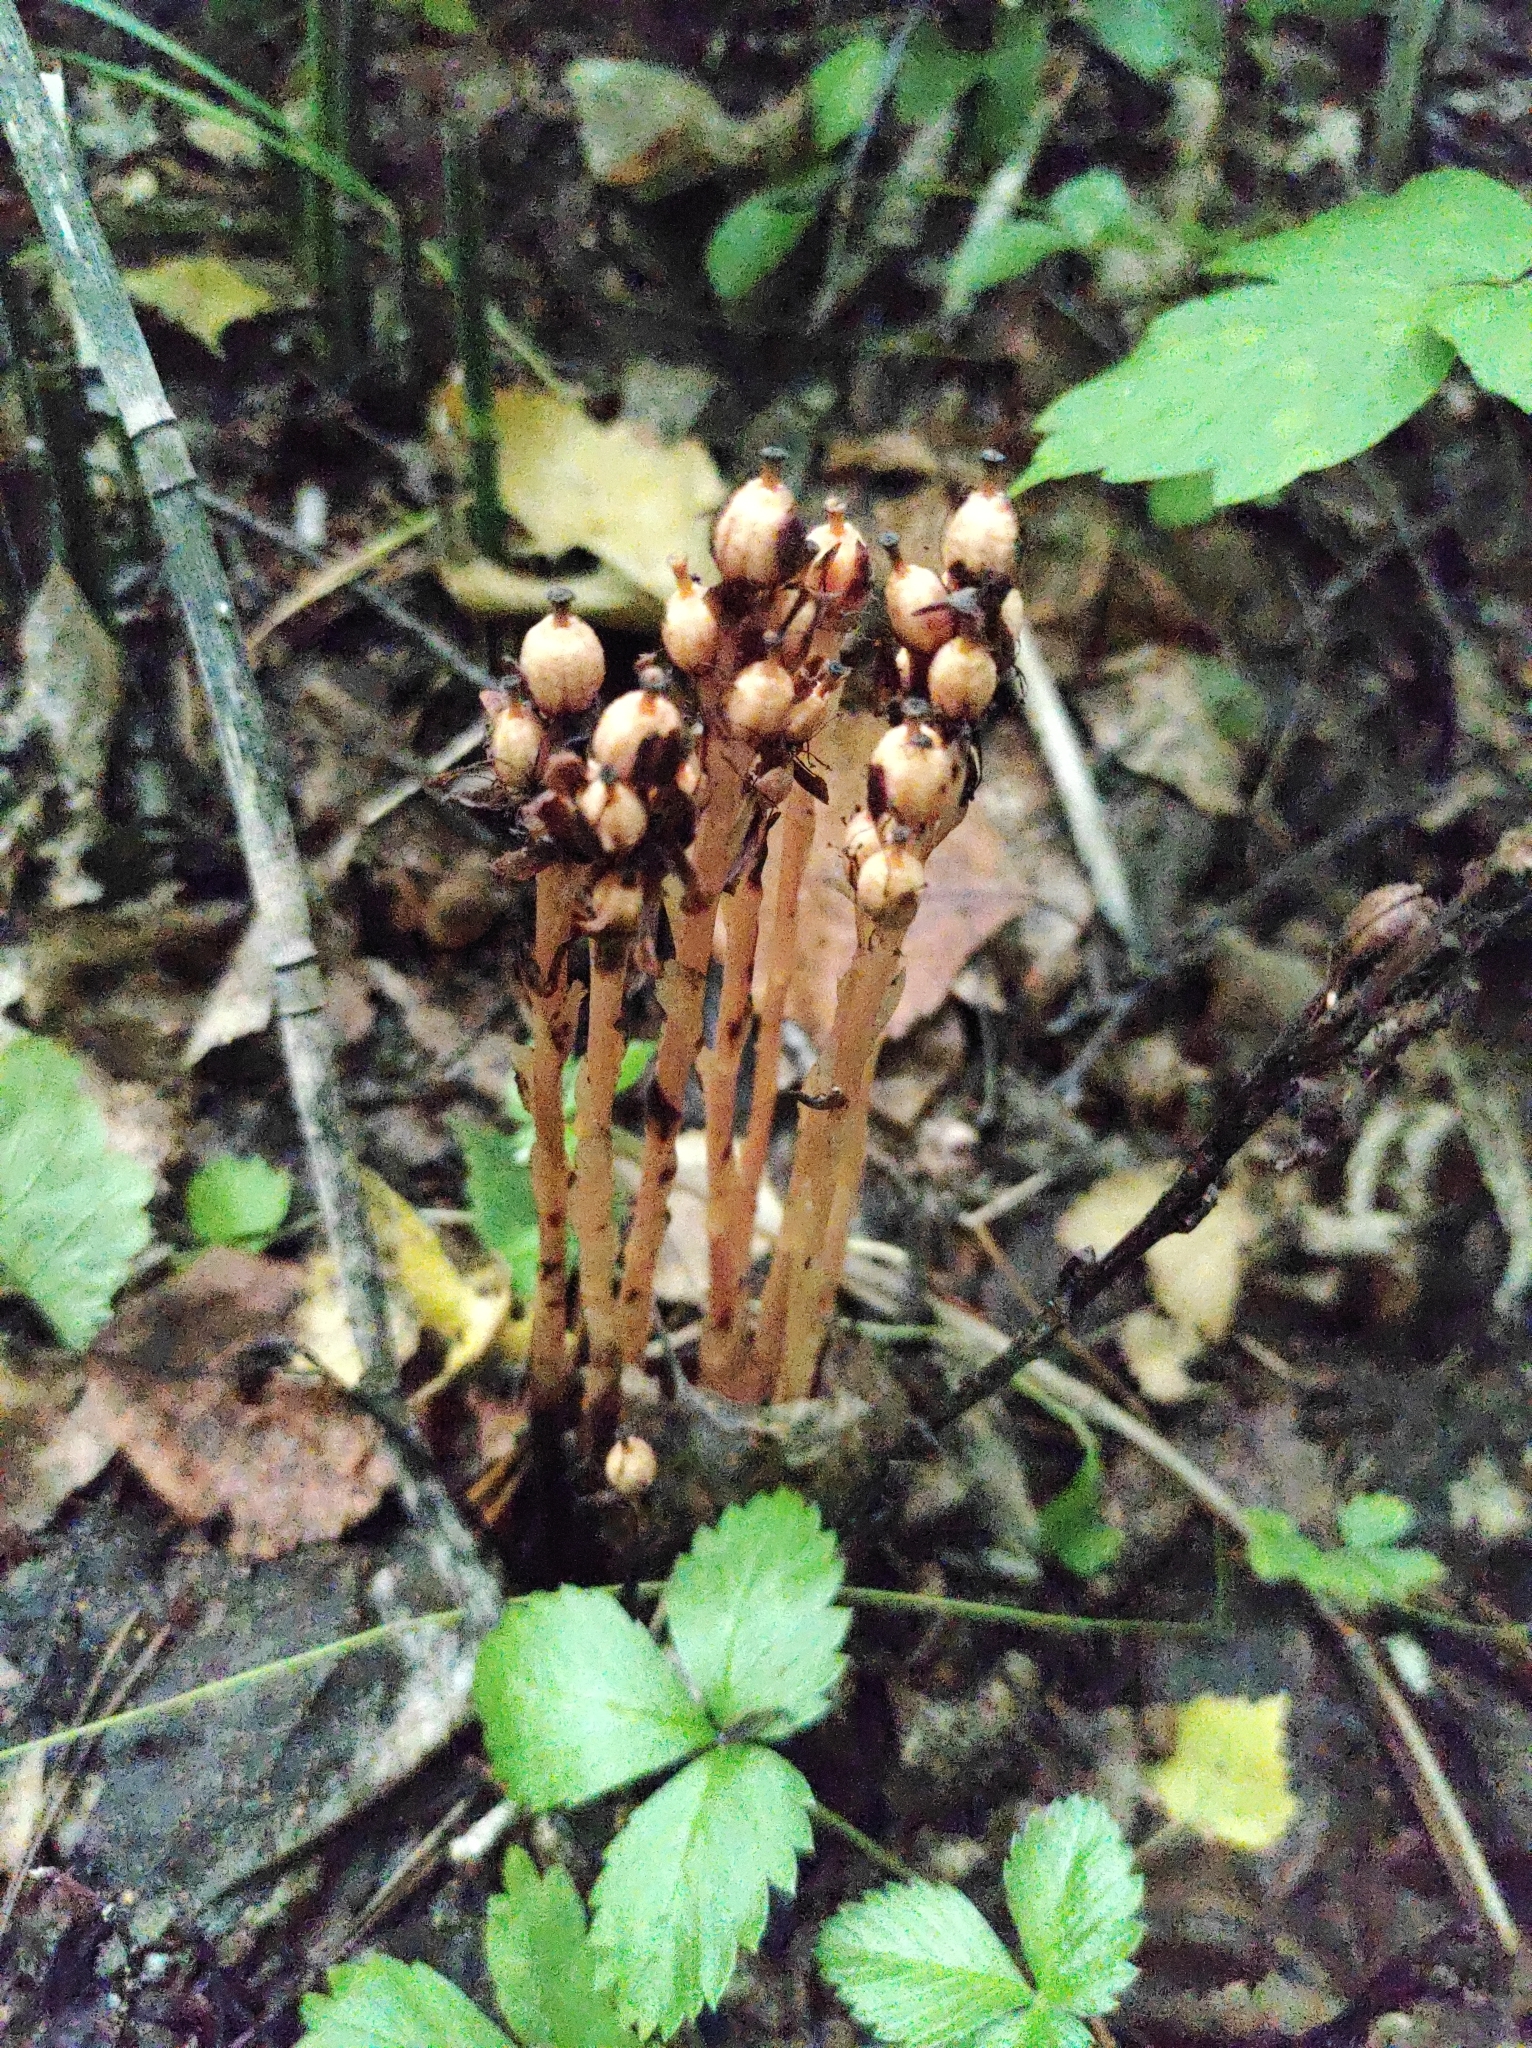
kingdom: Plantae
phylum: Tracheophyta
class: Magnoliopsida
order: Ericales
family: Ericaceae
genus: Hypopitys
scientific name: Hypopitys monotropa
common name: Yellow bird's-nest
